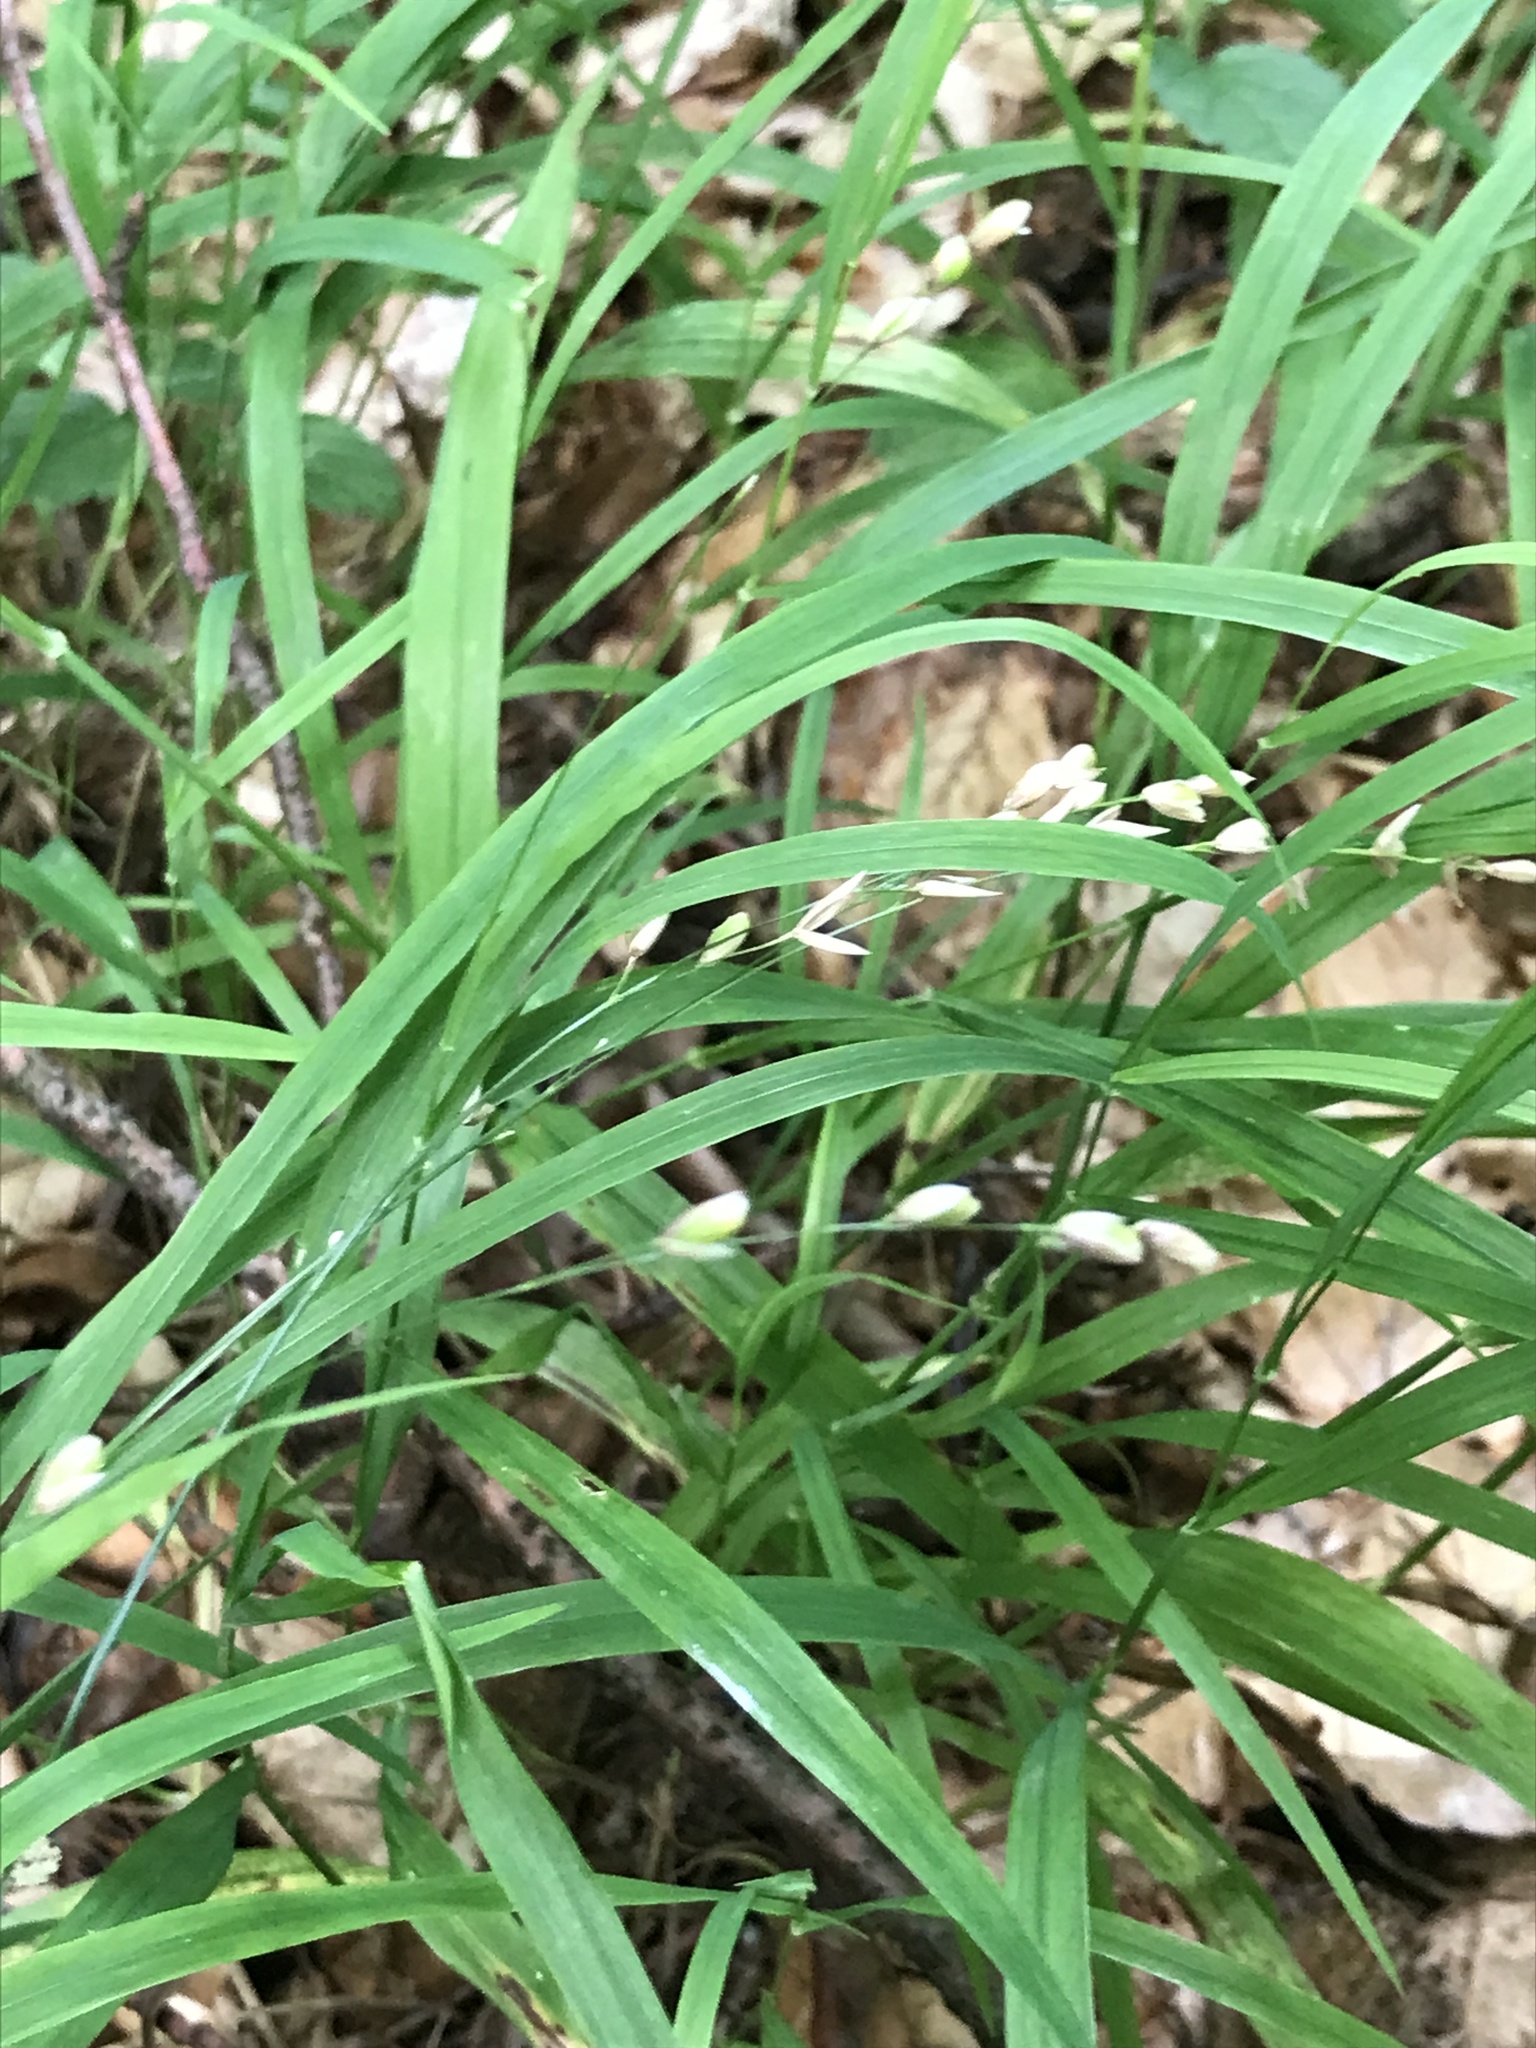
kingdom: Plantae
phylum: Tracheophyta
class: Liliopsida
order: Poales
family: Poaceae
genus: Melica
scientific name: Melica uniflora
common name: Wood melick
